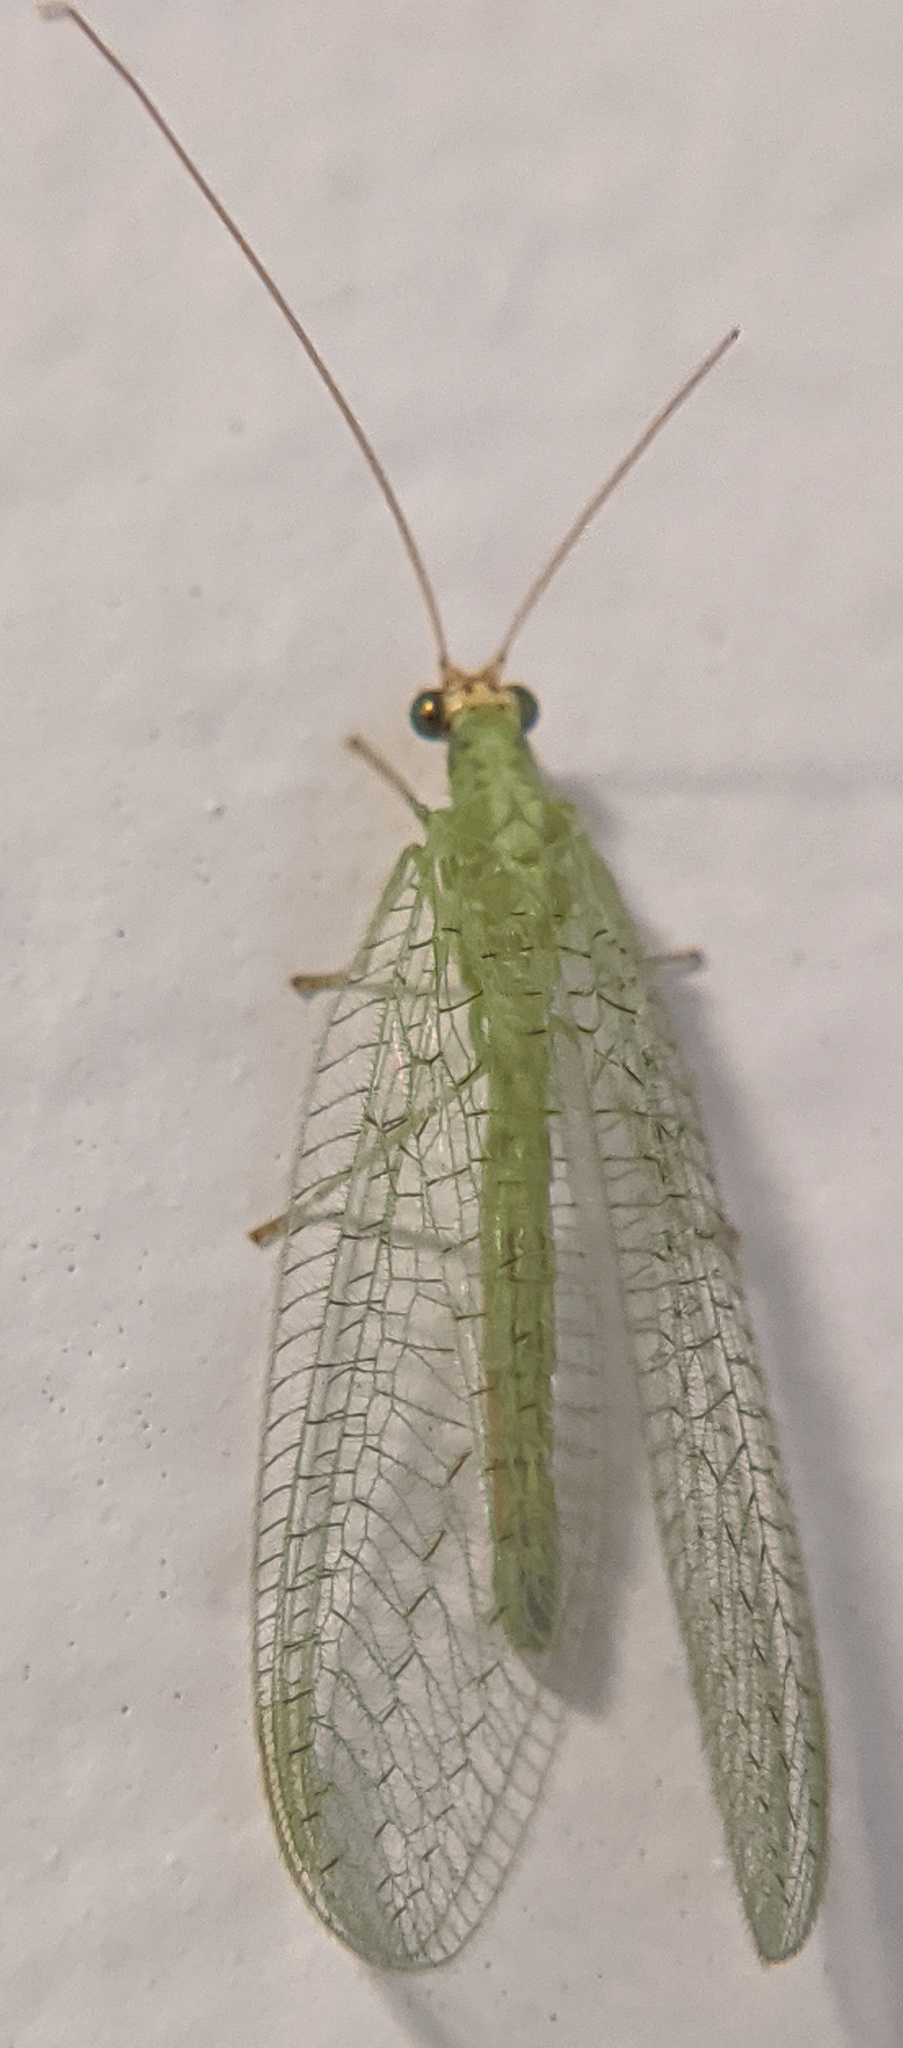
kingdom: Animalia
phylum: Arthropoda
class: Insecta
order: Neuroptera
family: Chrysopidae
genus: Chrysopa
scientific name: Chrysopa oculata
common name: Golden-eyed lacewing
